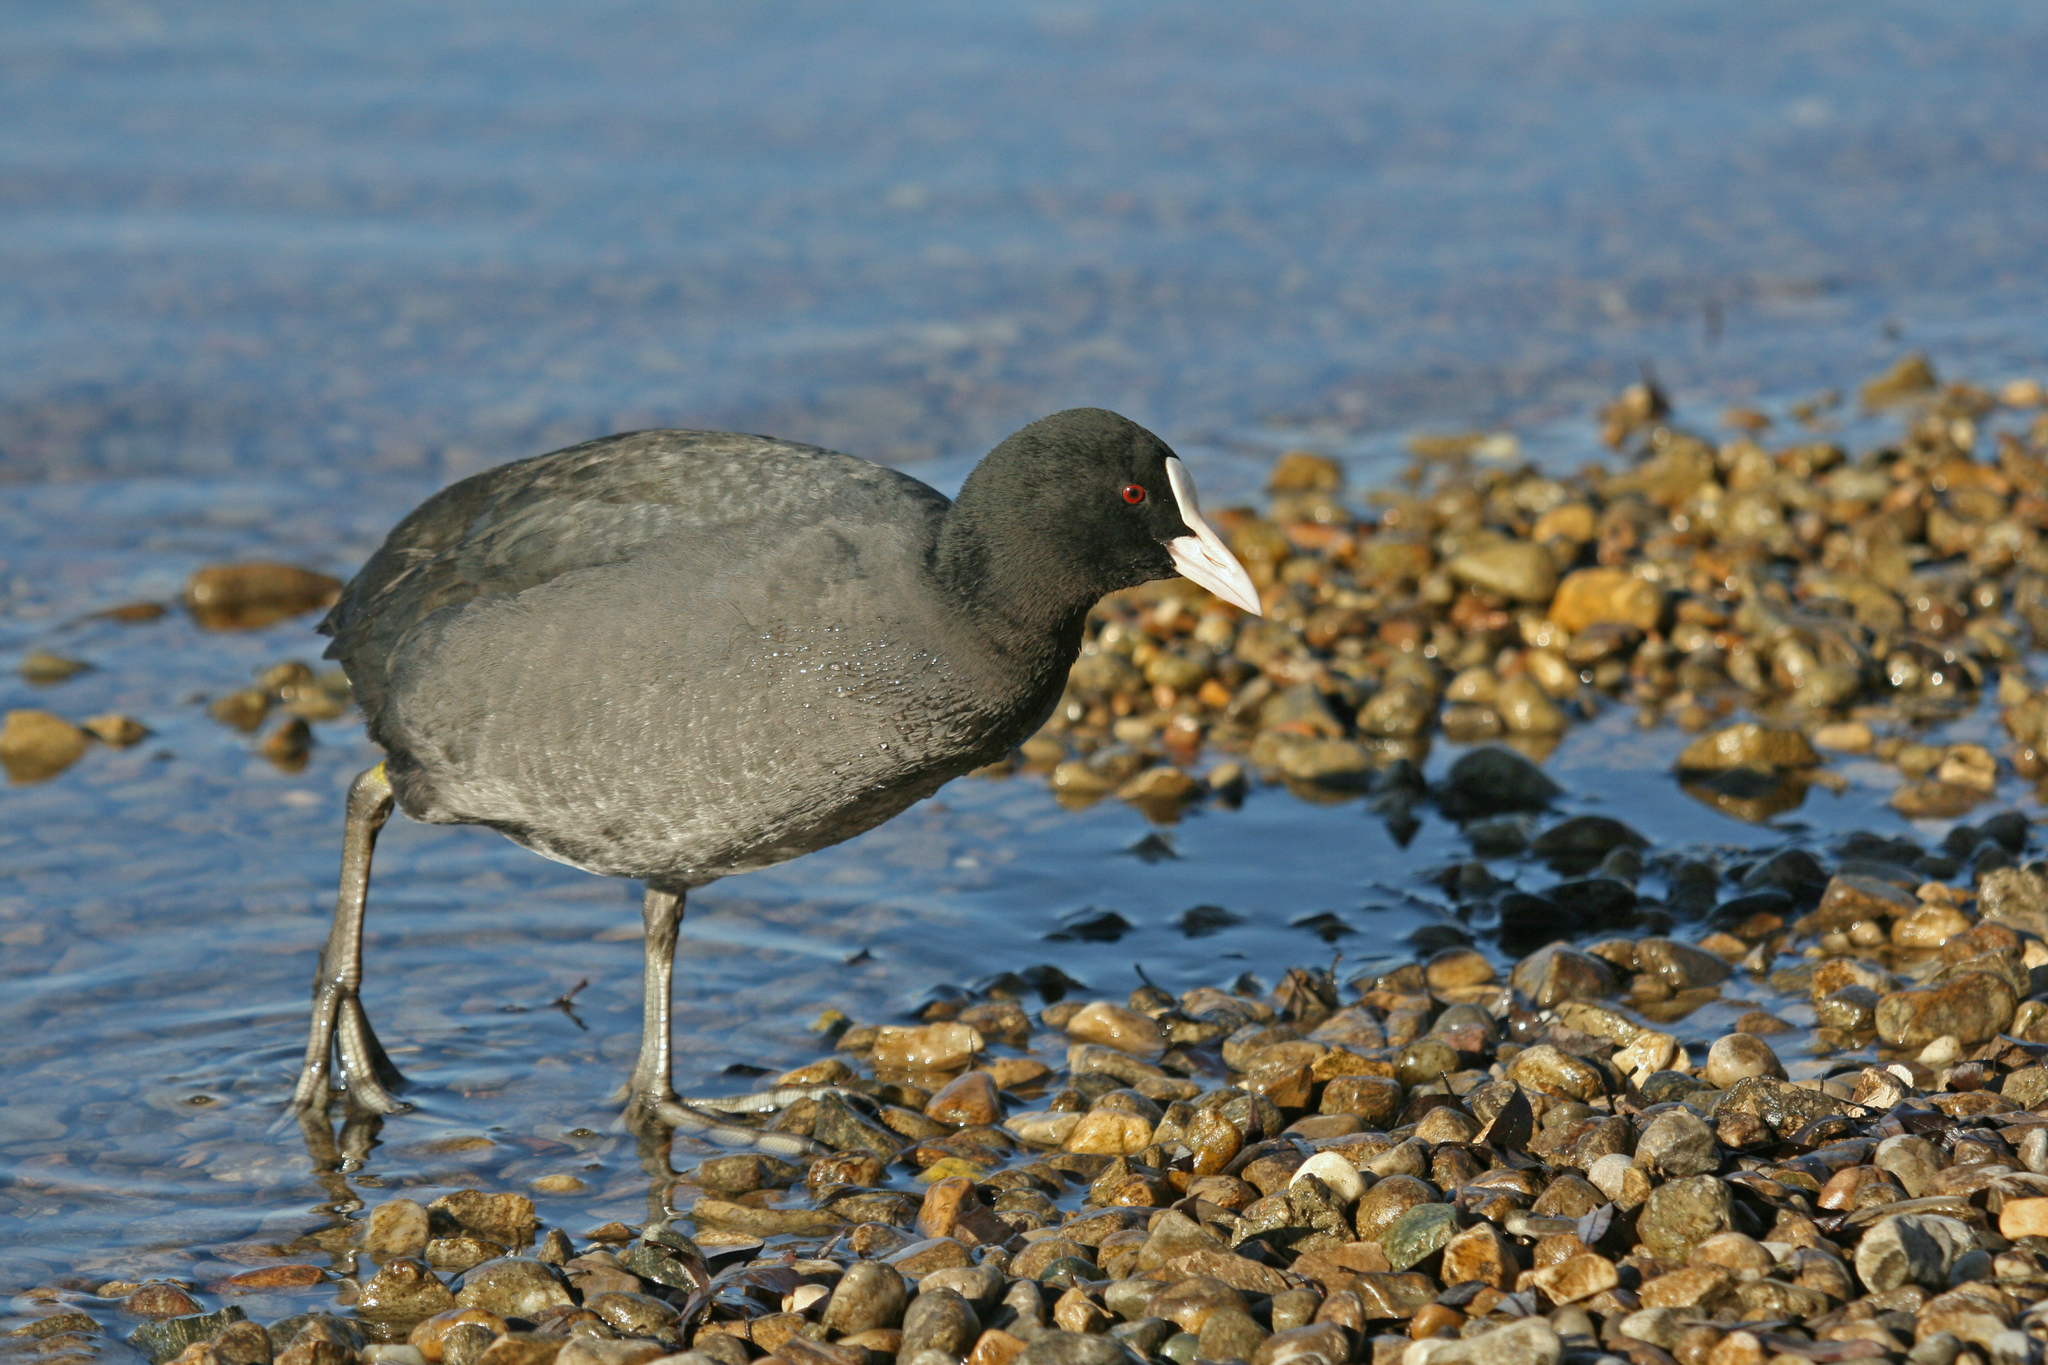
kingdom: Animalia
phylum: Chordata
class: Aves
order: Gruiformes
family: Rallidae
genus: Fulica
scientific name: Fulica atra
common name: Eurasian coot
